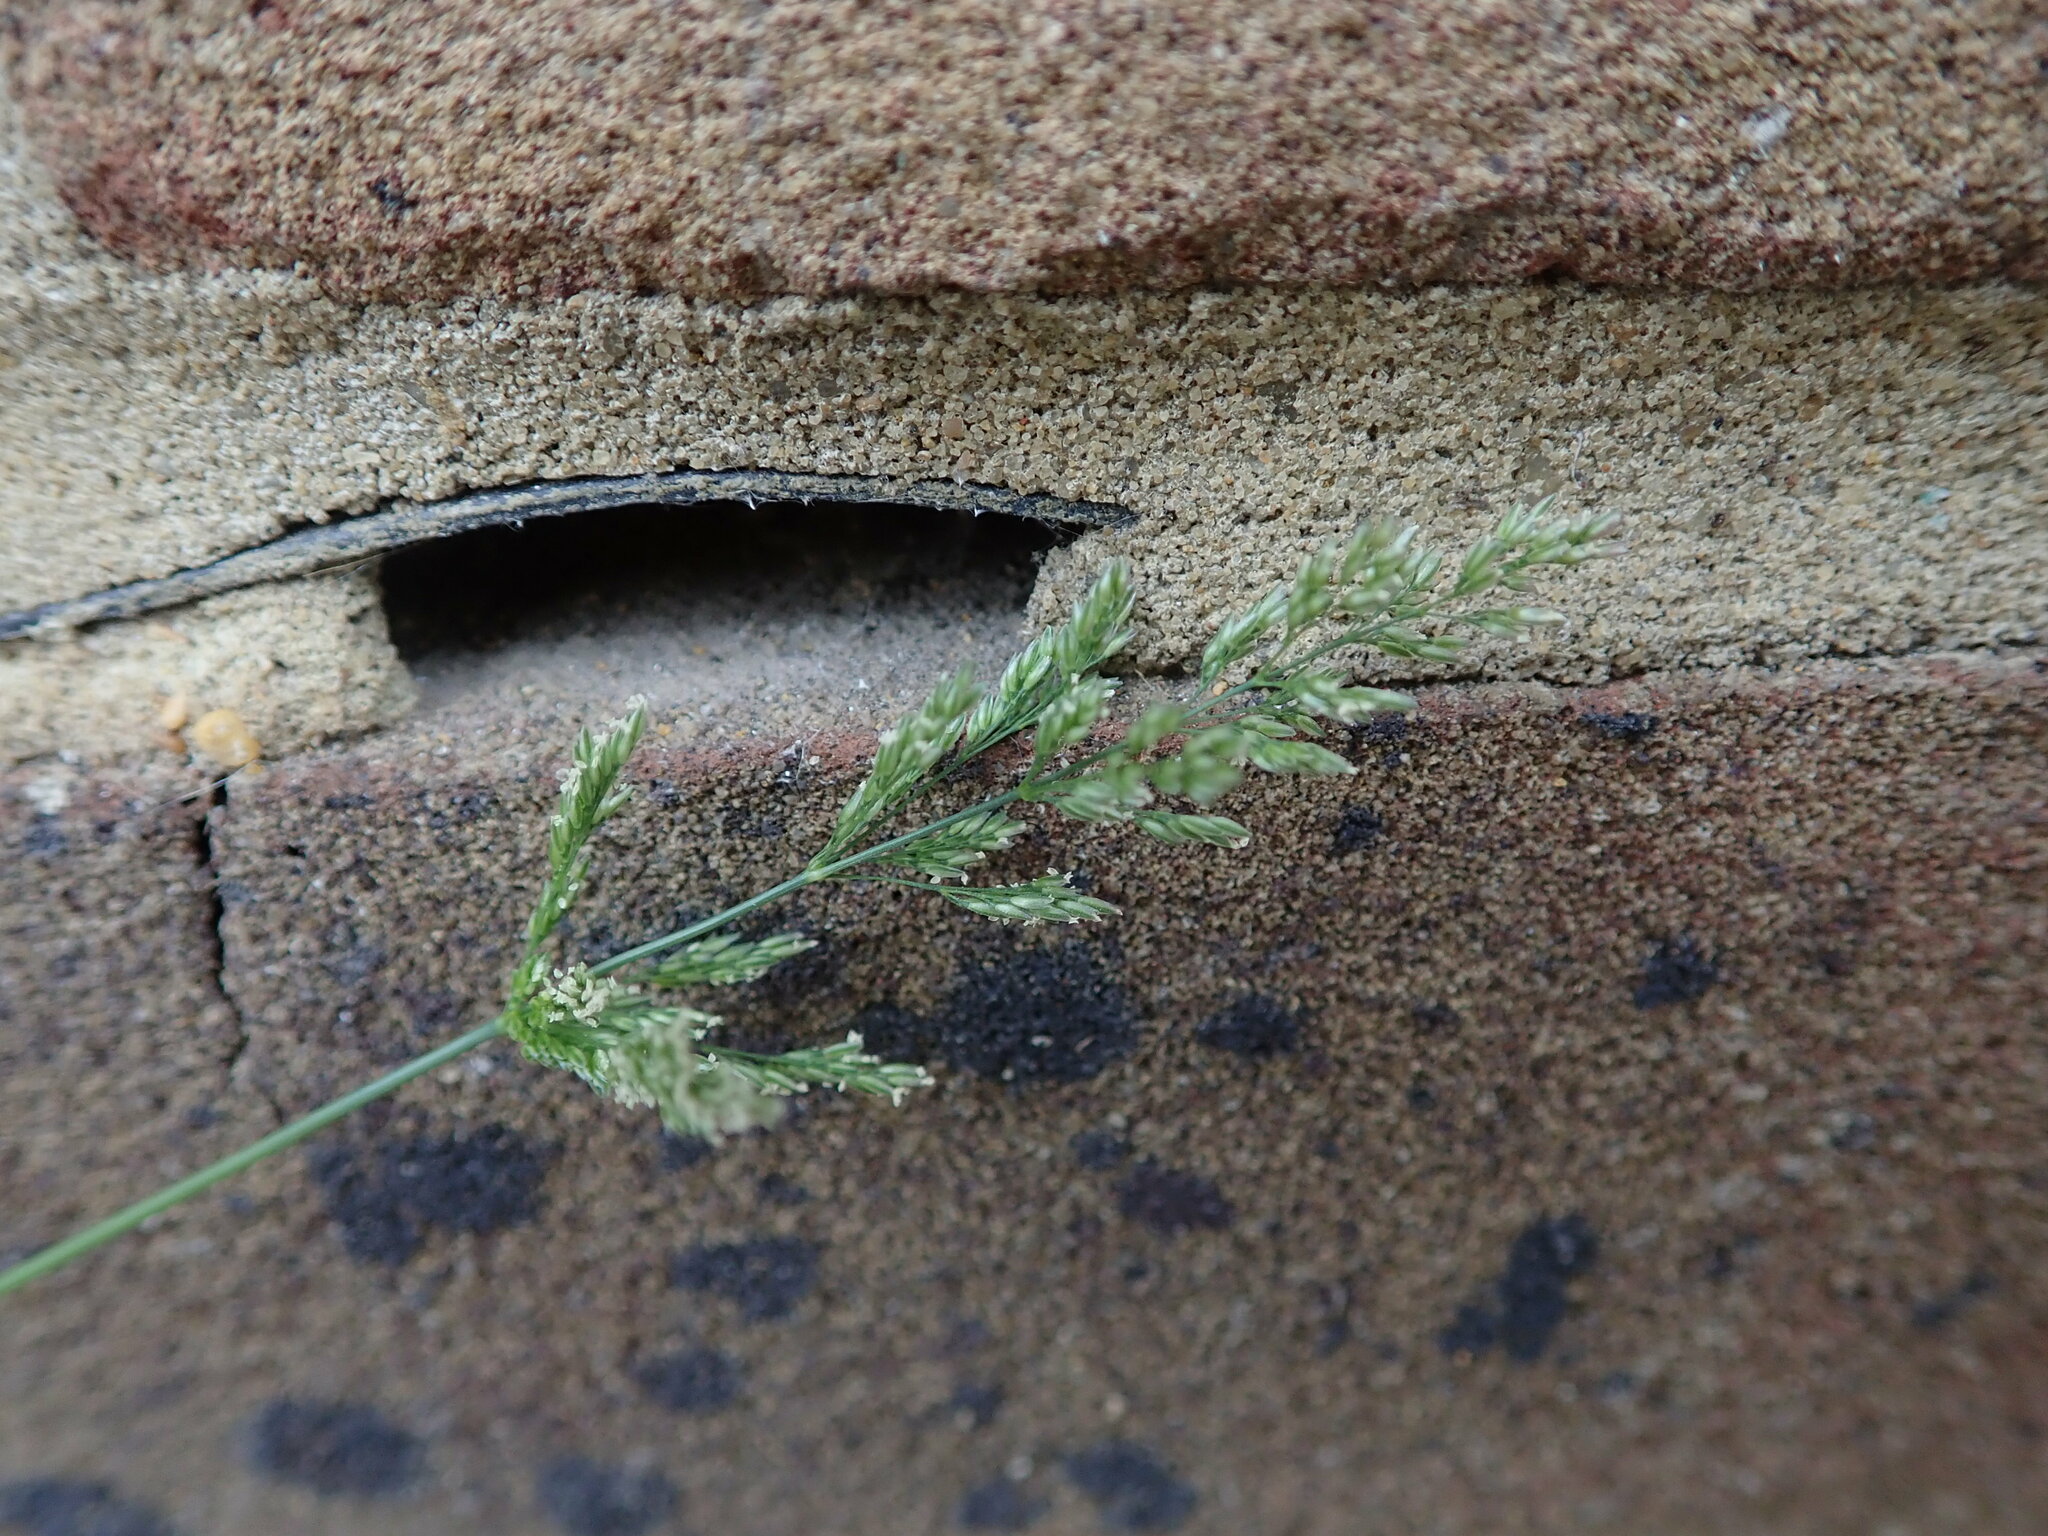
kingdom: Plantae
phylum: Tracheophyta
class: Liliopsida
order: Poales
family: Poaceae
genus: Polypogon
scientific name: Polypogon viridis
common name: Water bent
